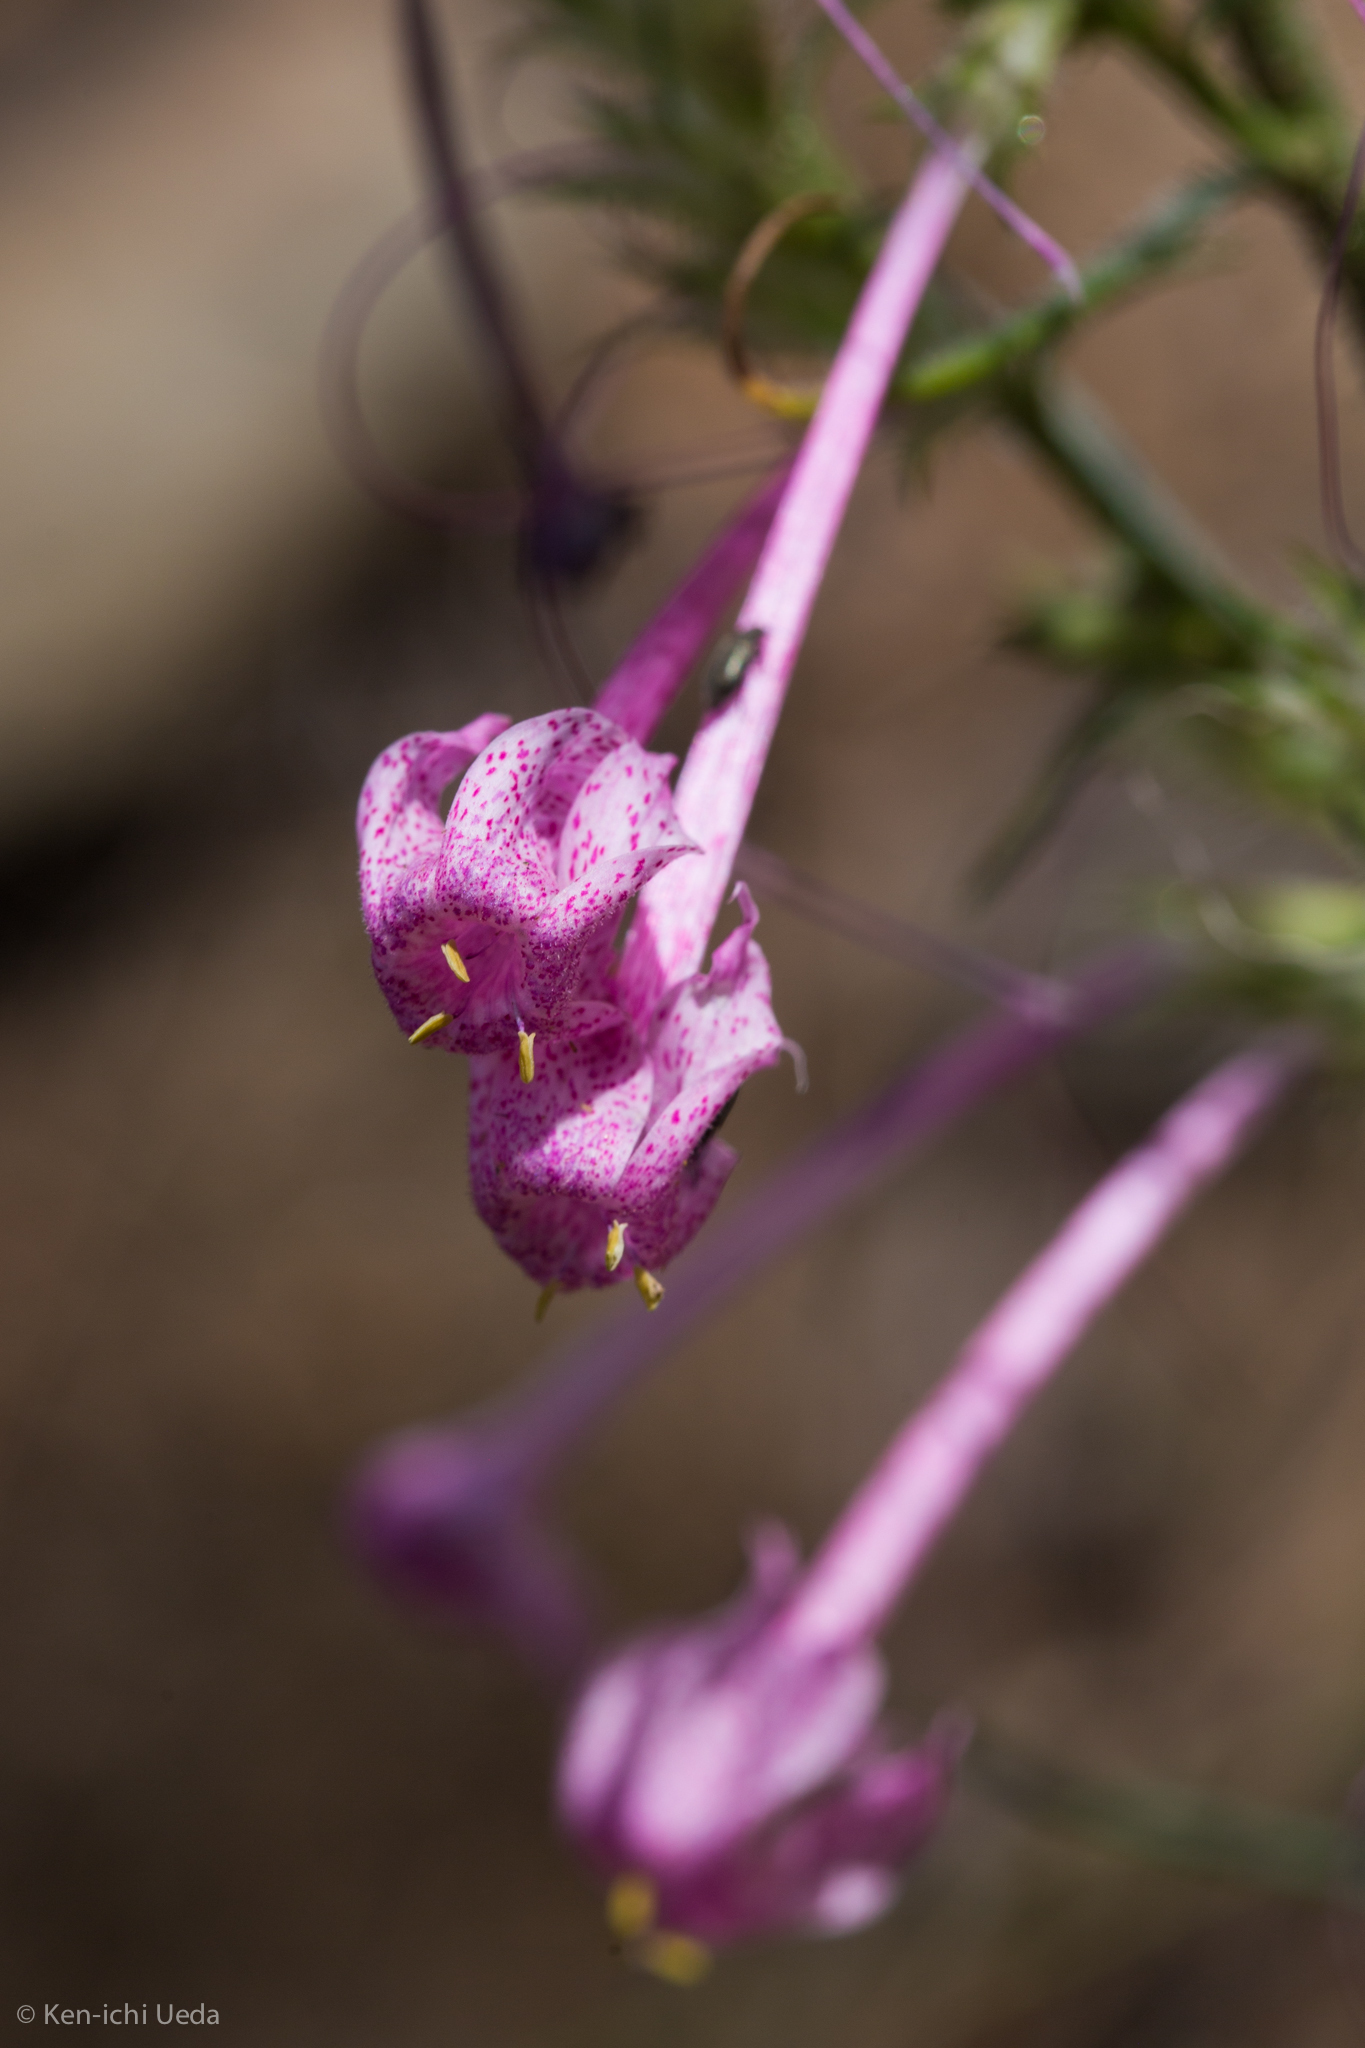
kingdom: Plantae
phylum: Tracheophyta
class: Magnoliopsida
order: Ericales
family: Polemoniaceae
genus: Ipomopsis
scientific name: Ipomopsis macrosiphon
